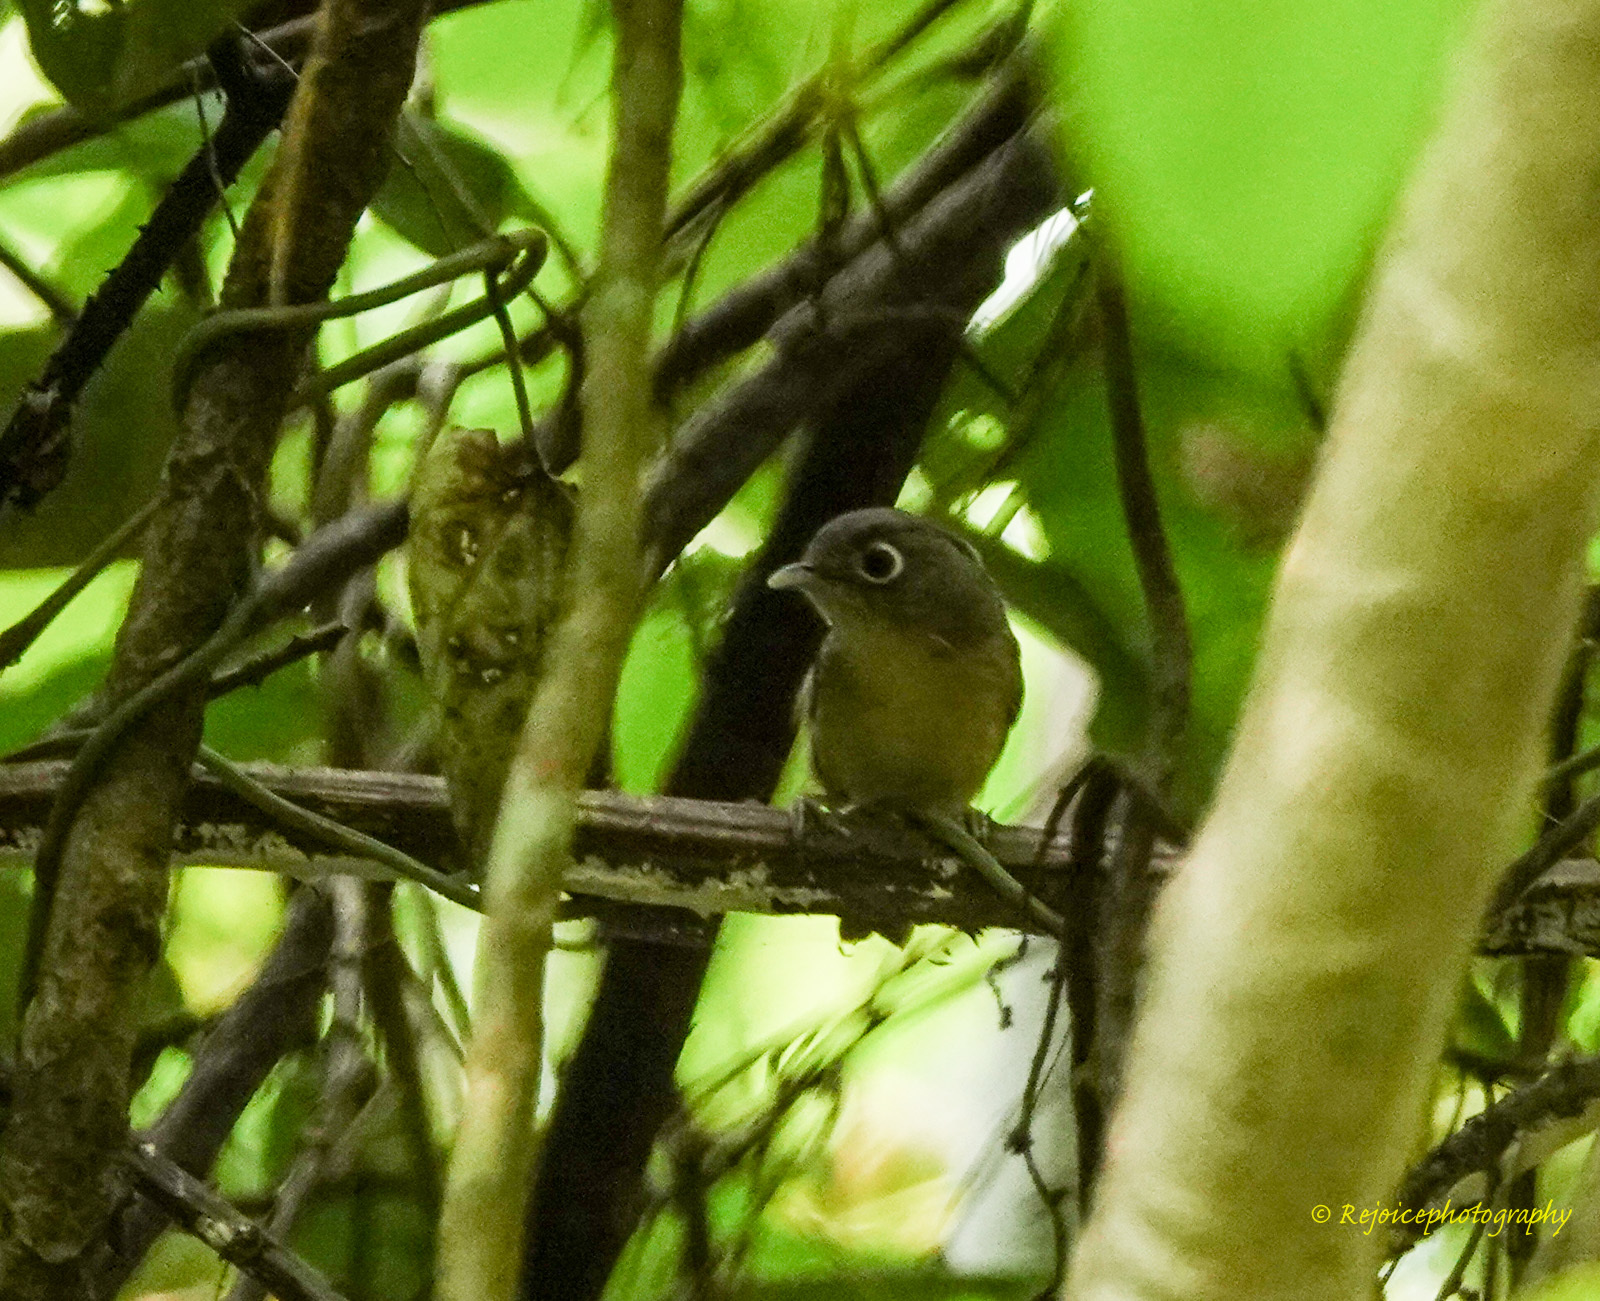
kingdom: Animalia
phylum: Chordata
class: Aves
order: Passeriformes
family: Pellorneidae
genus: Alcippe
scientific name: Alcippe nipalensis
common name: Nepal fulvetta
